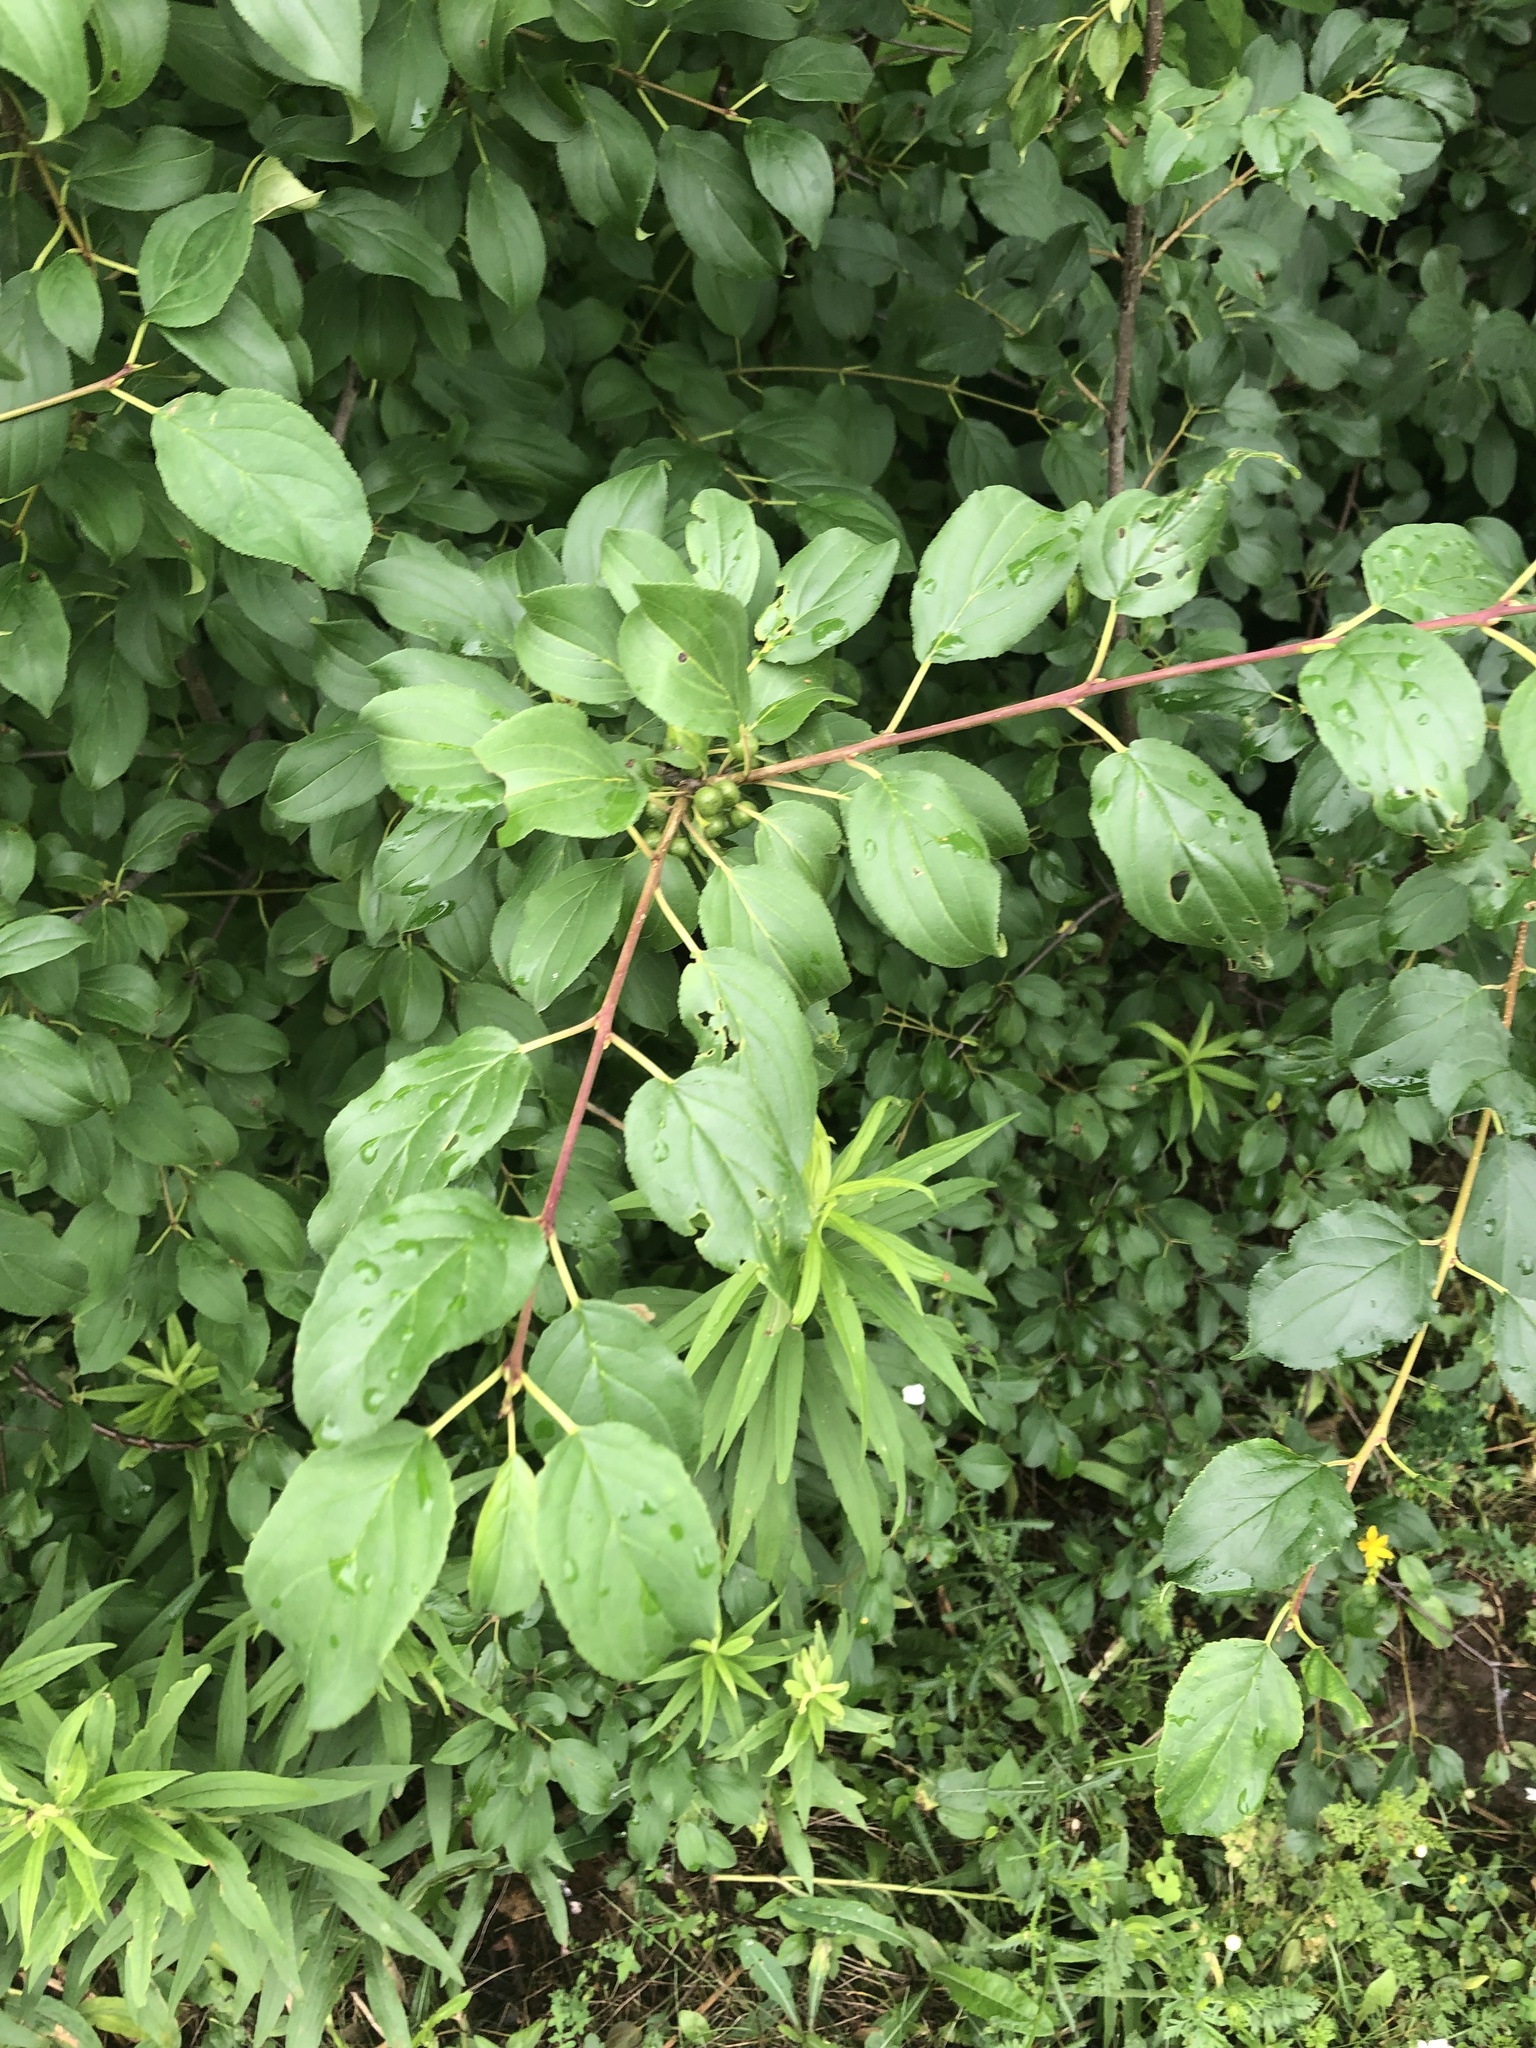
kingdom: Plantae
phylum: Tracheophyta
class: Magnoliopsida
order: Rosales
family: Rhamnaceae
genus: Rhamnus
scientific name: Rhamnus cathartica
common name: Common buckthorn
